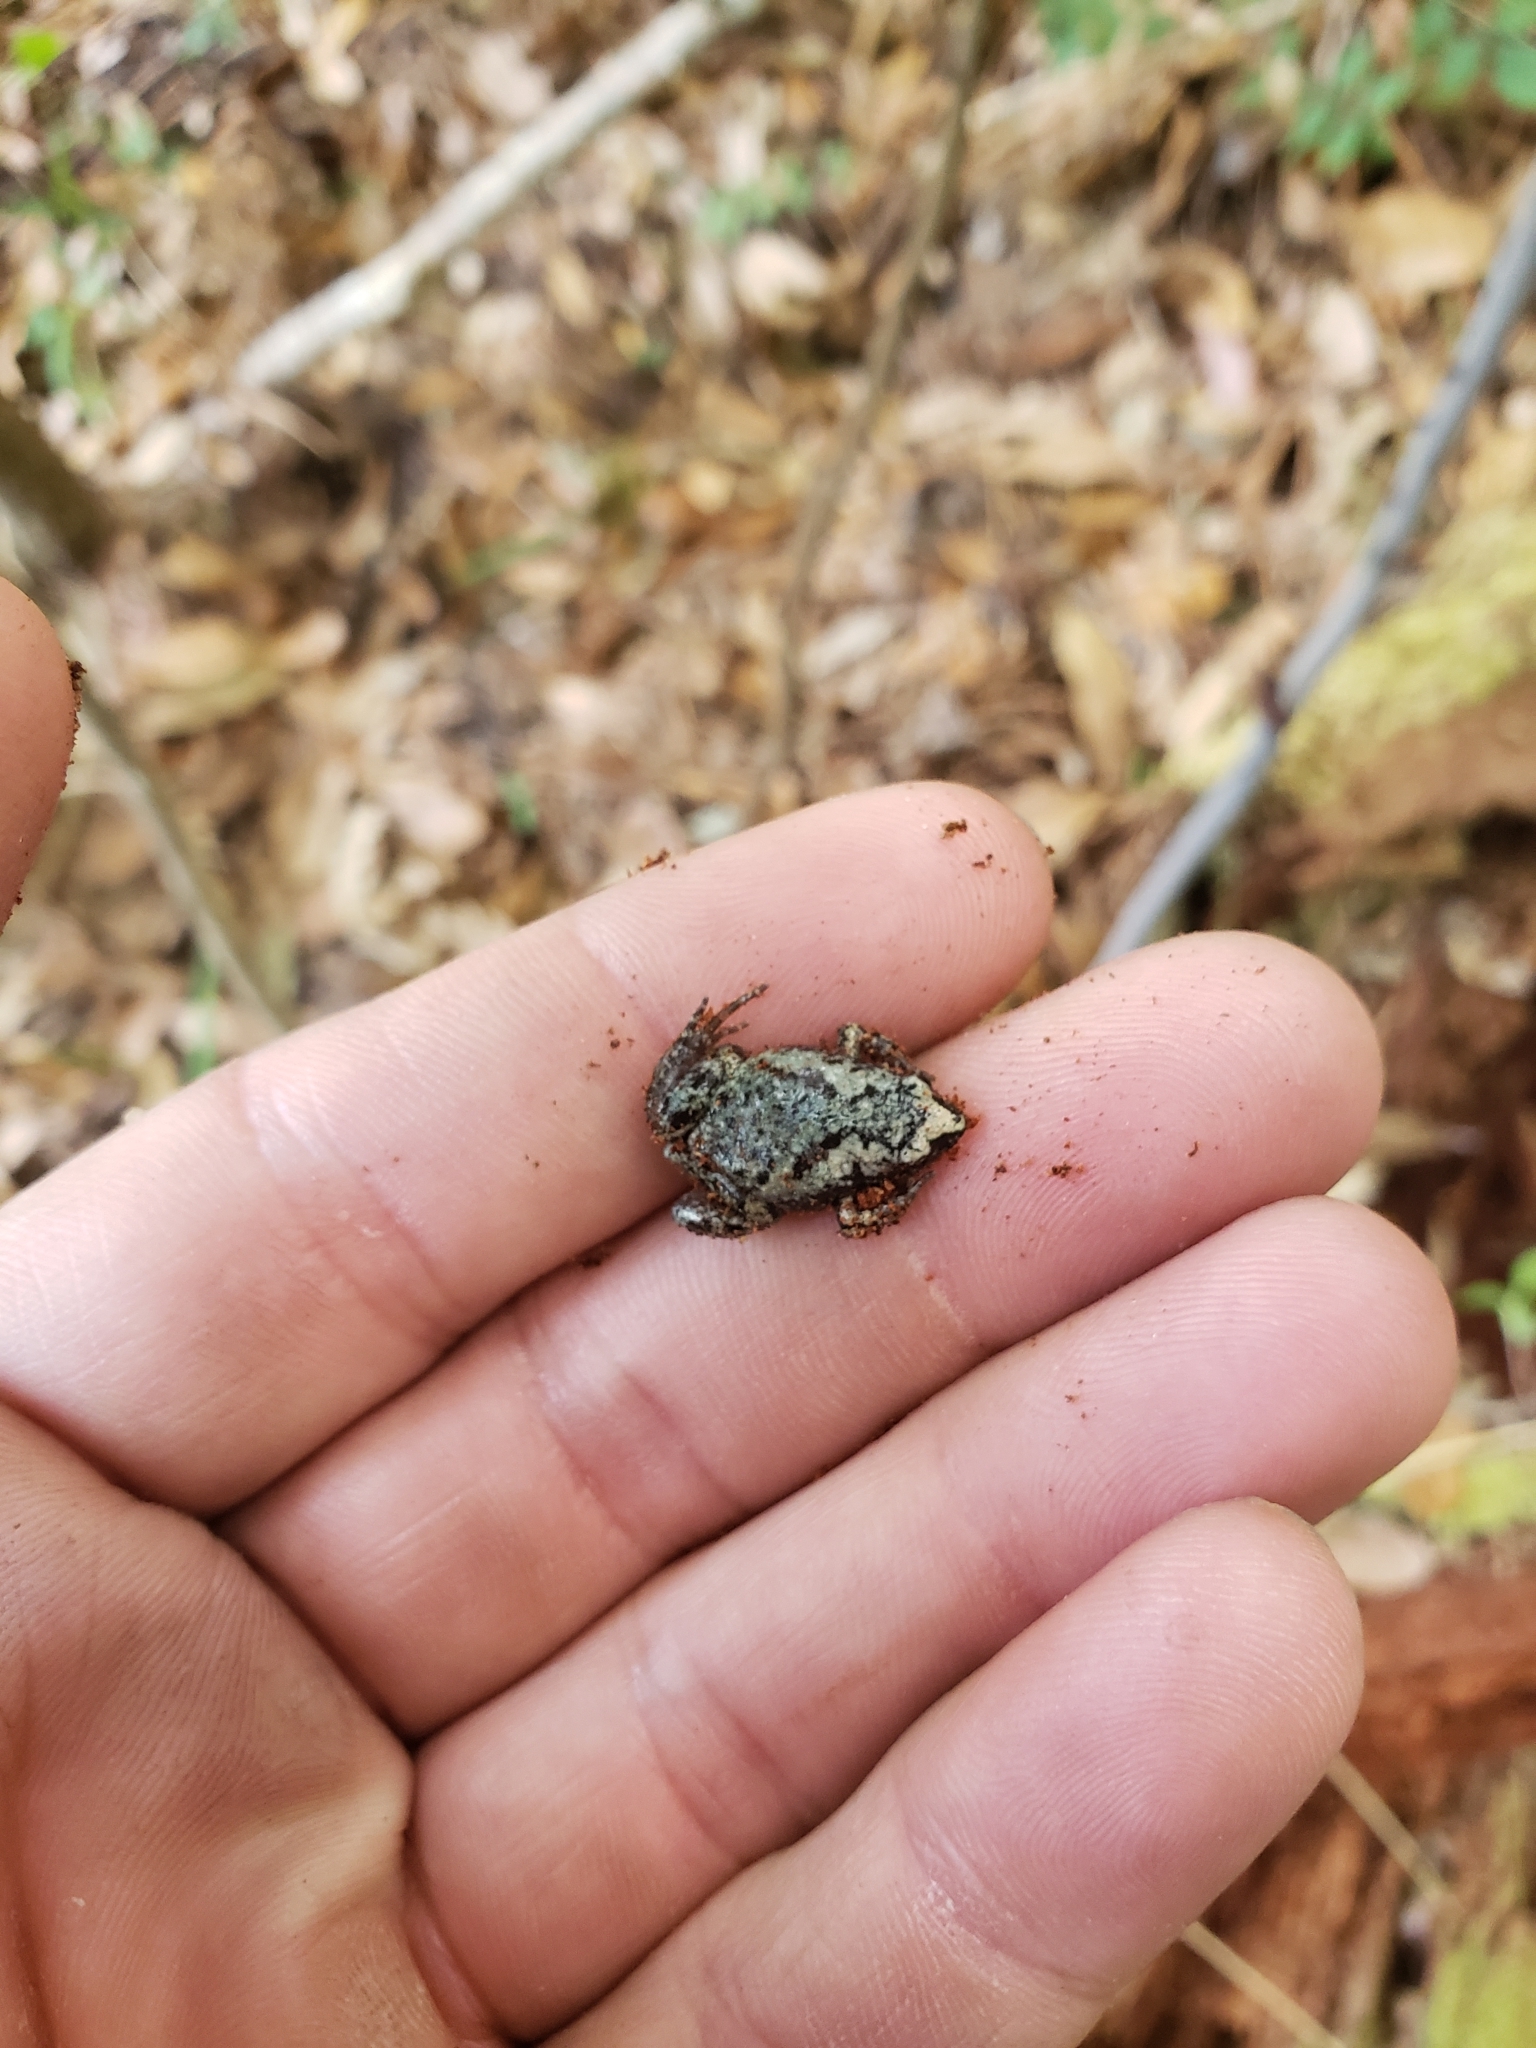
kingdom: Animalia
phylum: Chordata
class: Amphibia
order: Anura
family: Microhylidae
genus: Gastrophryne
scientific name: Gastrophryne carolinensis
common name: Eastern narrowmouth toad
